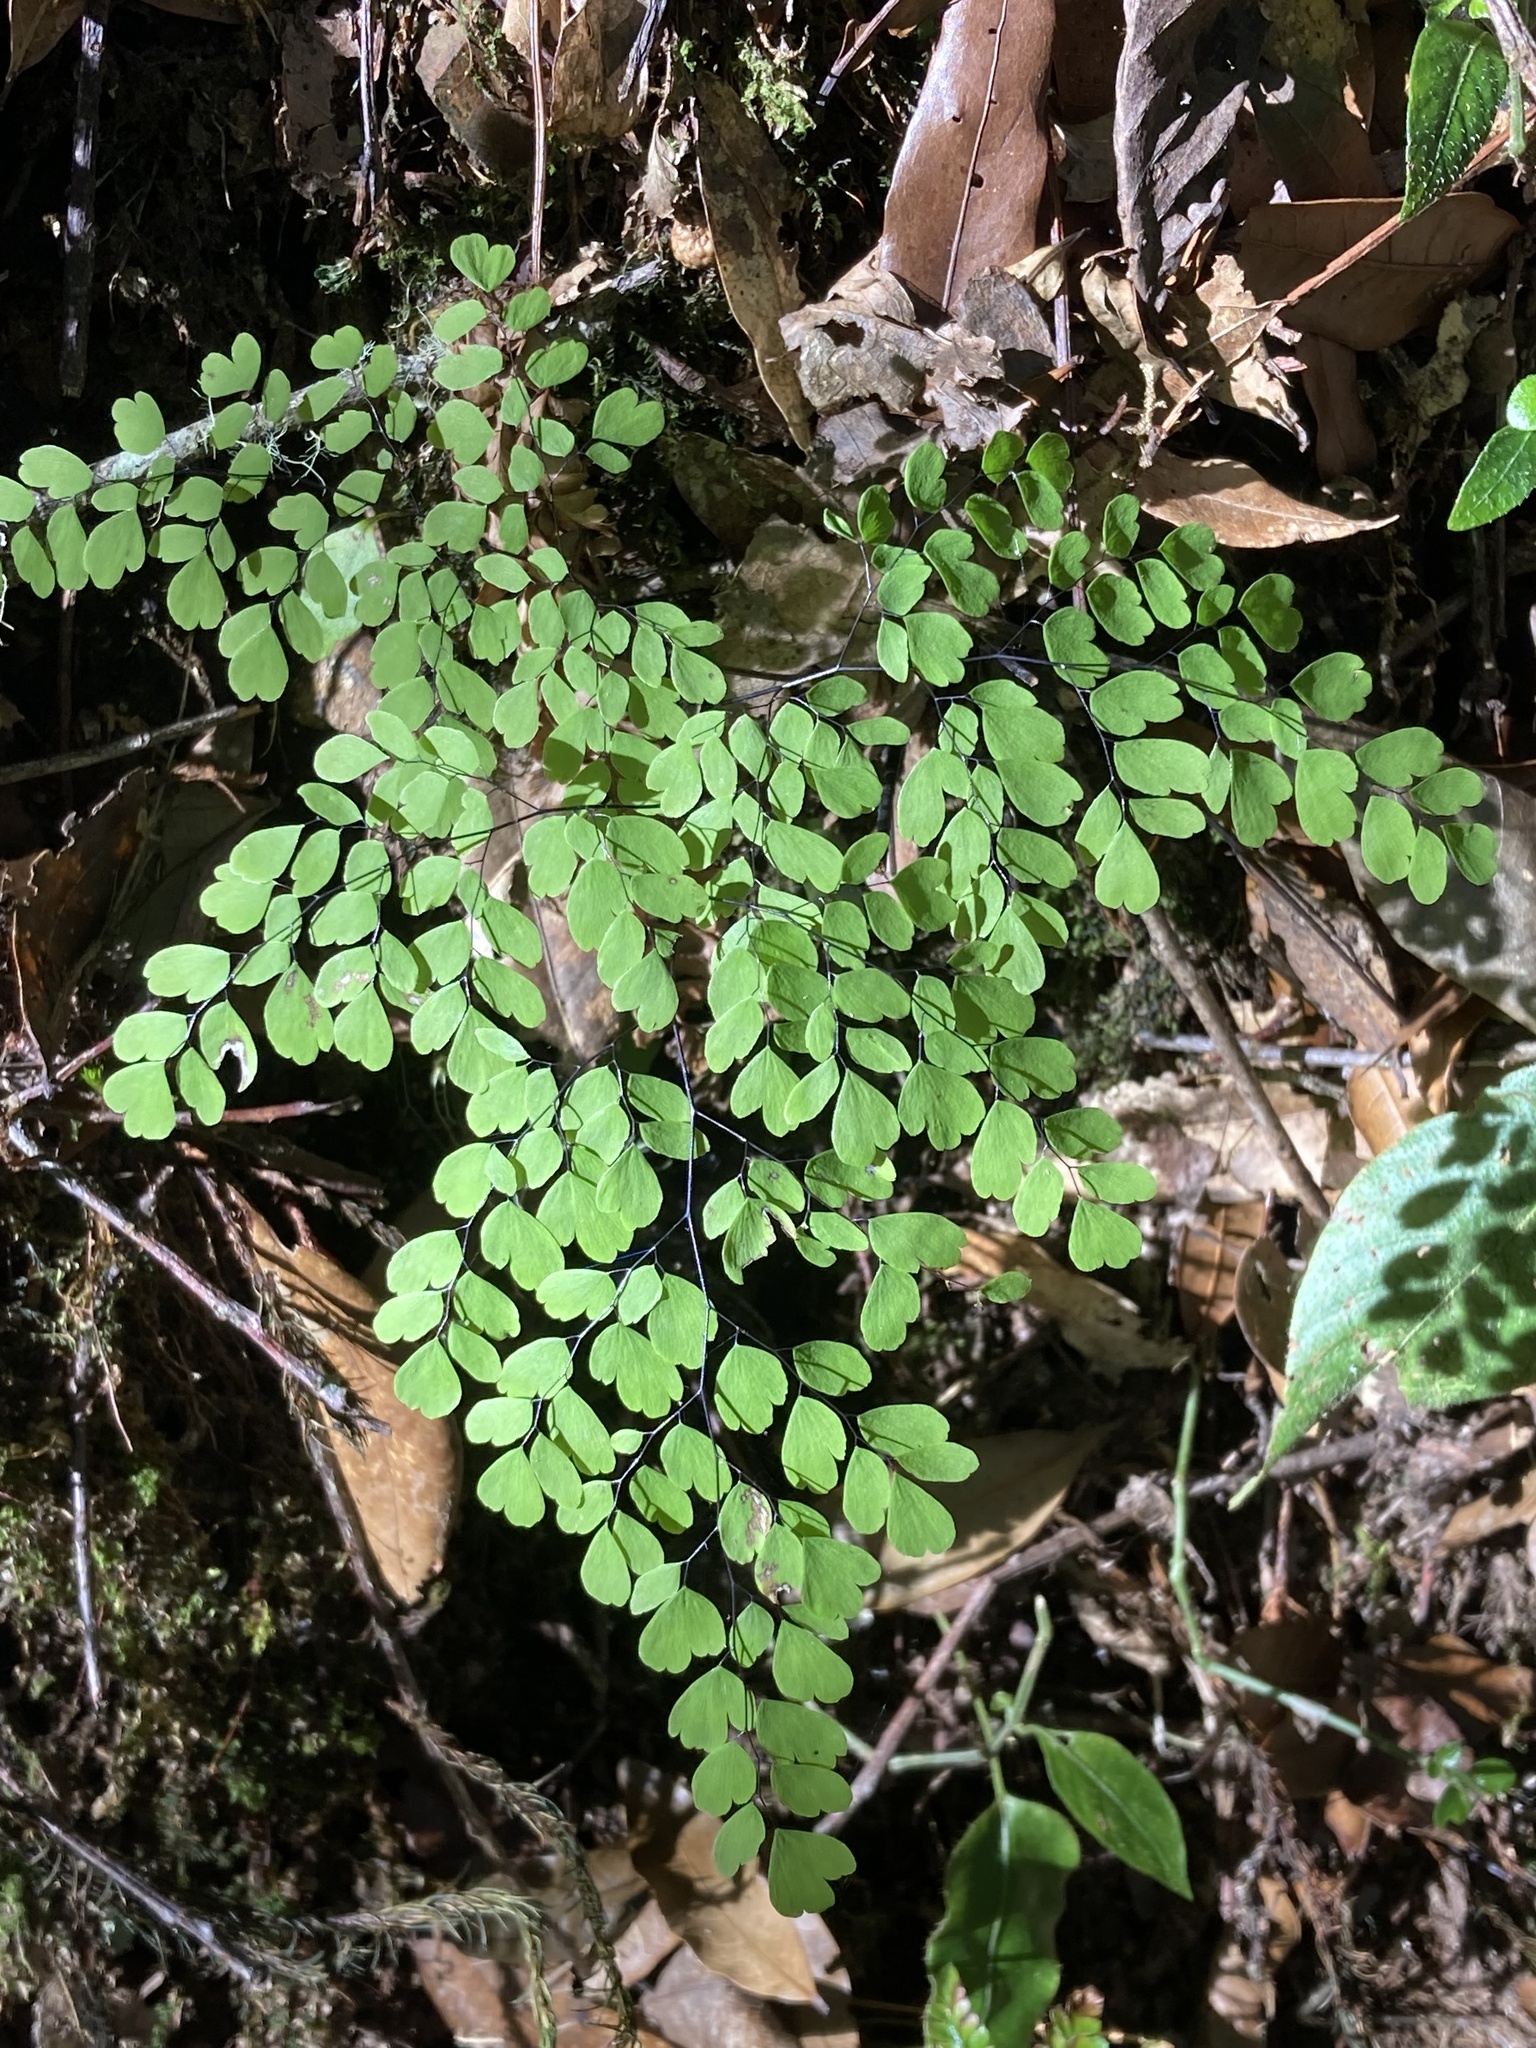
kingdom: Plantae
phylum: Tracheophyta
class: Polypodiopsida
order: Polypodiales
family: Pteridaceae
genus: Adiantum
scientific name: Adiantum andicola
